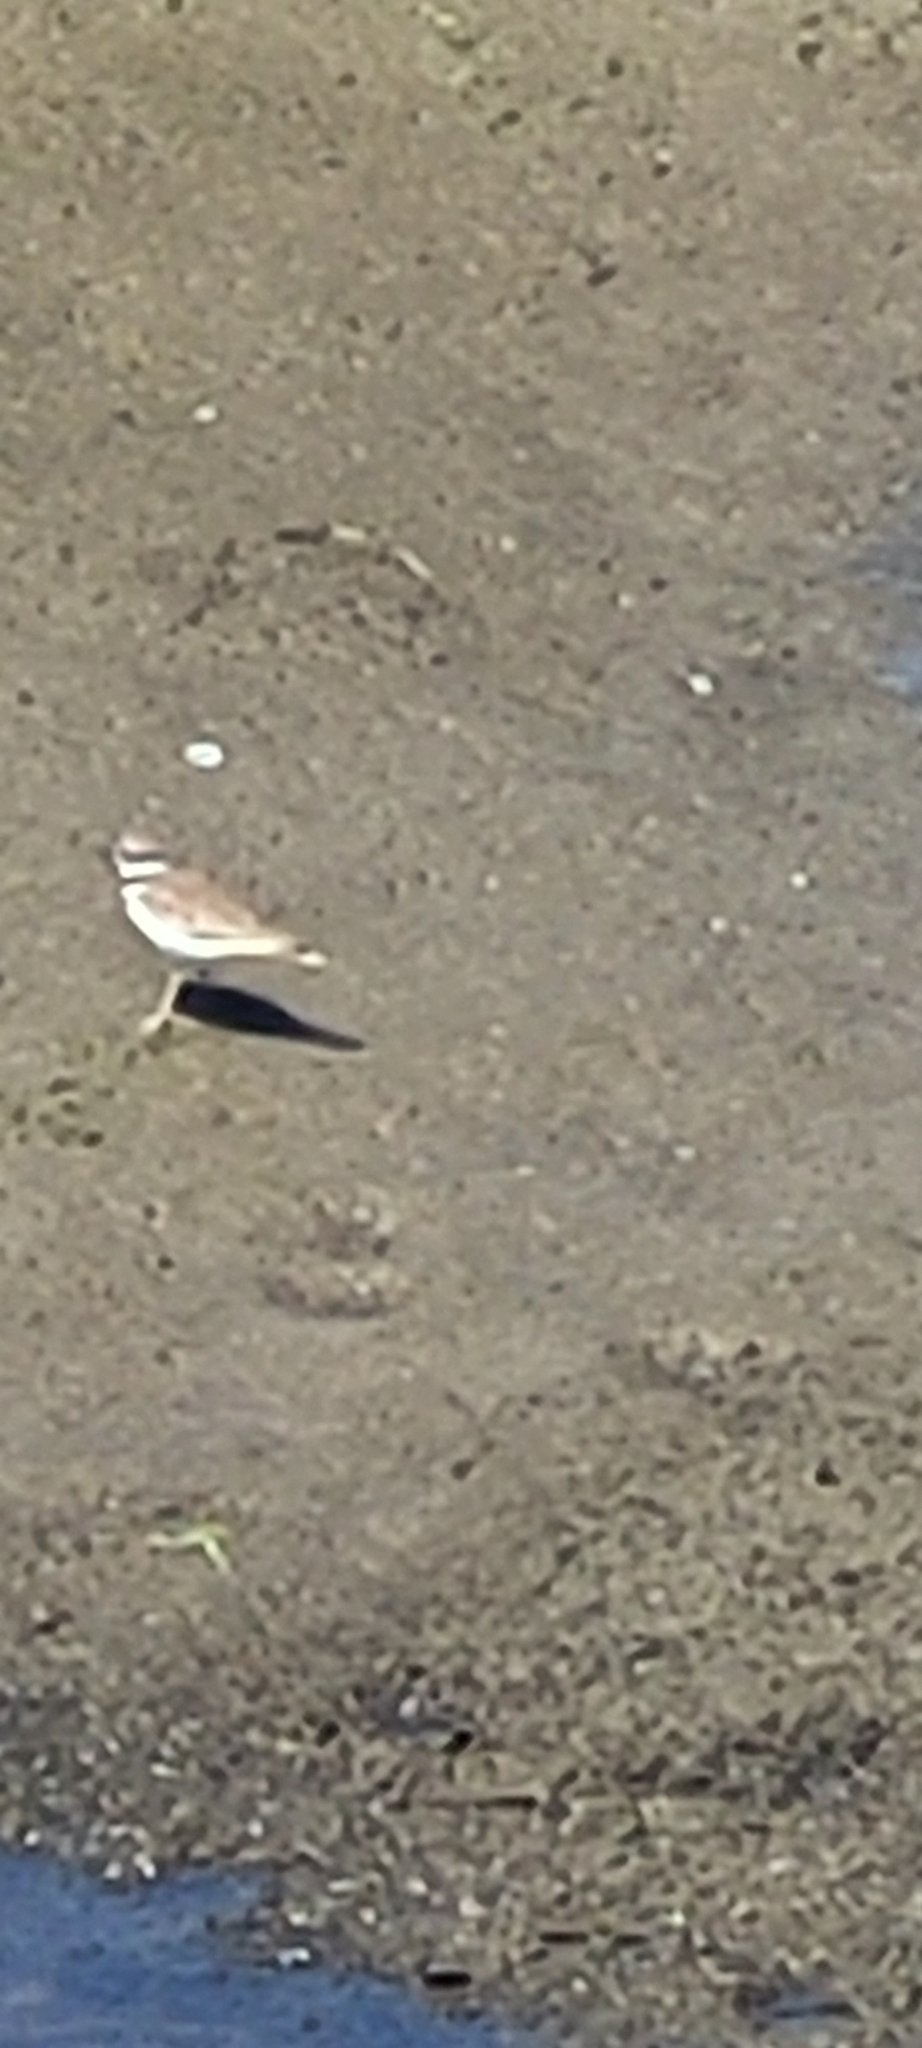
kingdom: Animalia
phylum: Chordata
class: Aves
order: Charadriiformes
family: Charadriidae
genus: Charadrius
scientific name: Charadrius vociferus
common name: Killdeer
